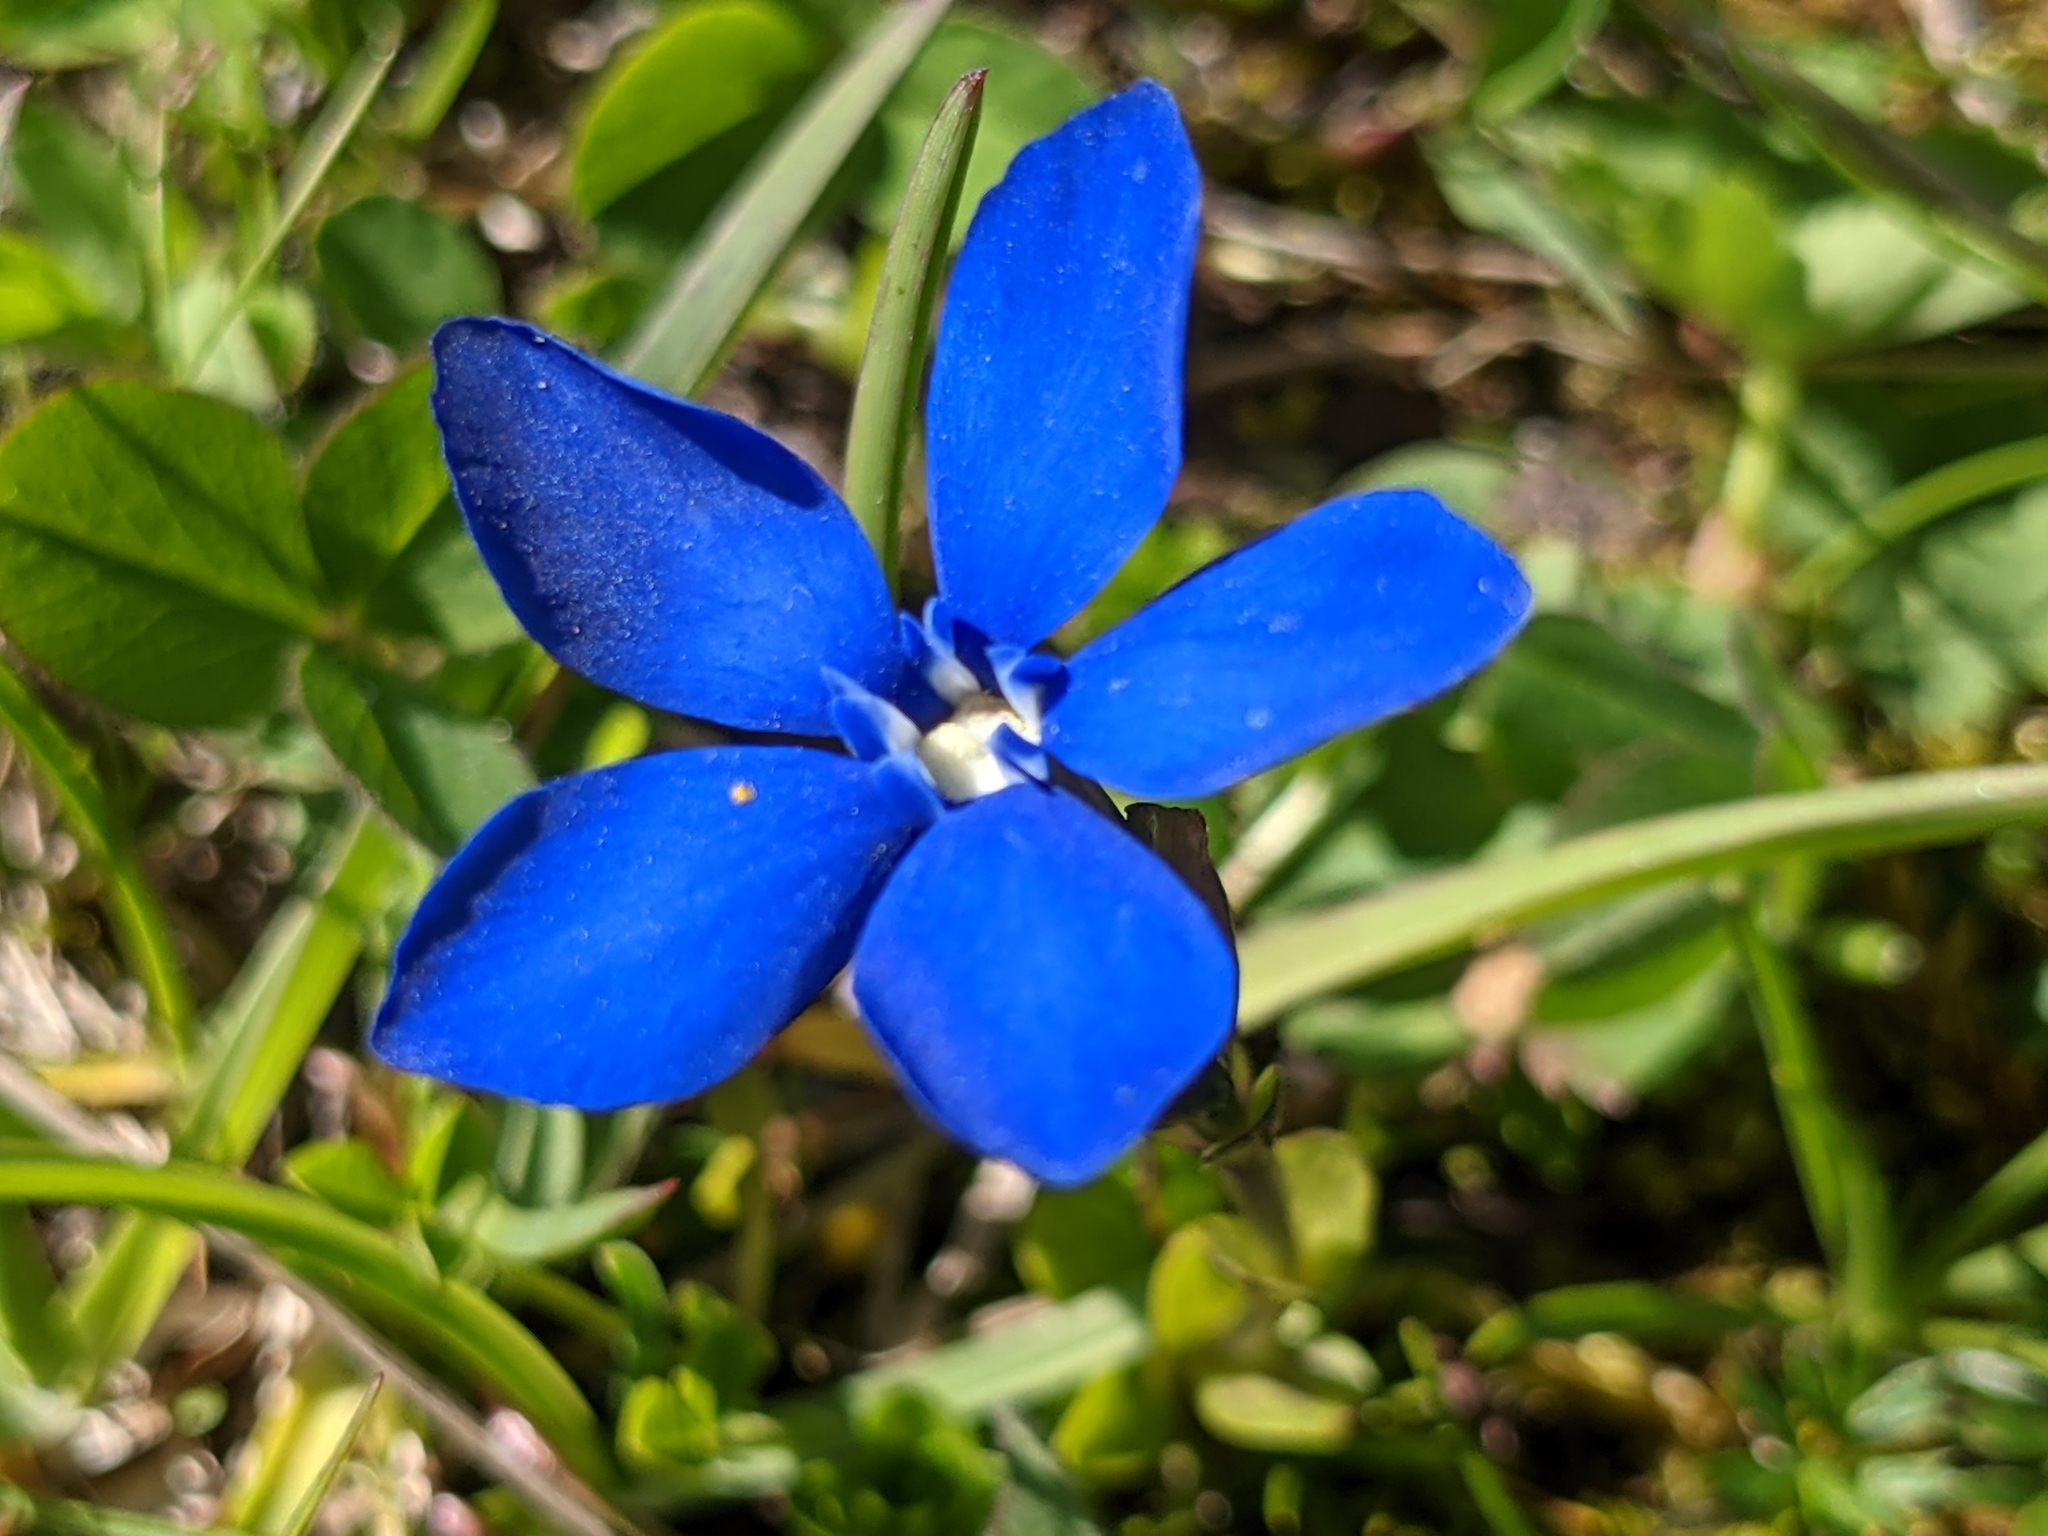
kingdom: Plantae
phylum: Tracheophyta
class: Magnoliopsida
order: Gentianales
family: Gentianaceae
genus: Gentiana
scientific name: Gentiana bavarica
